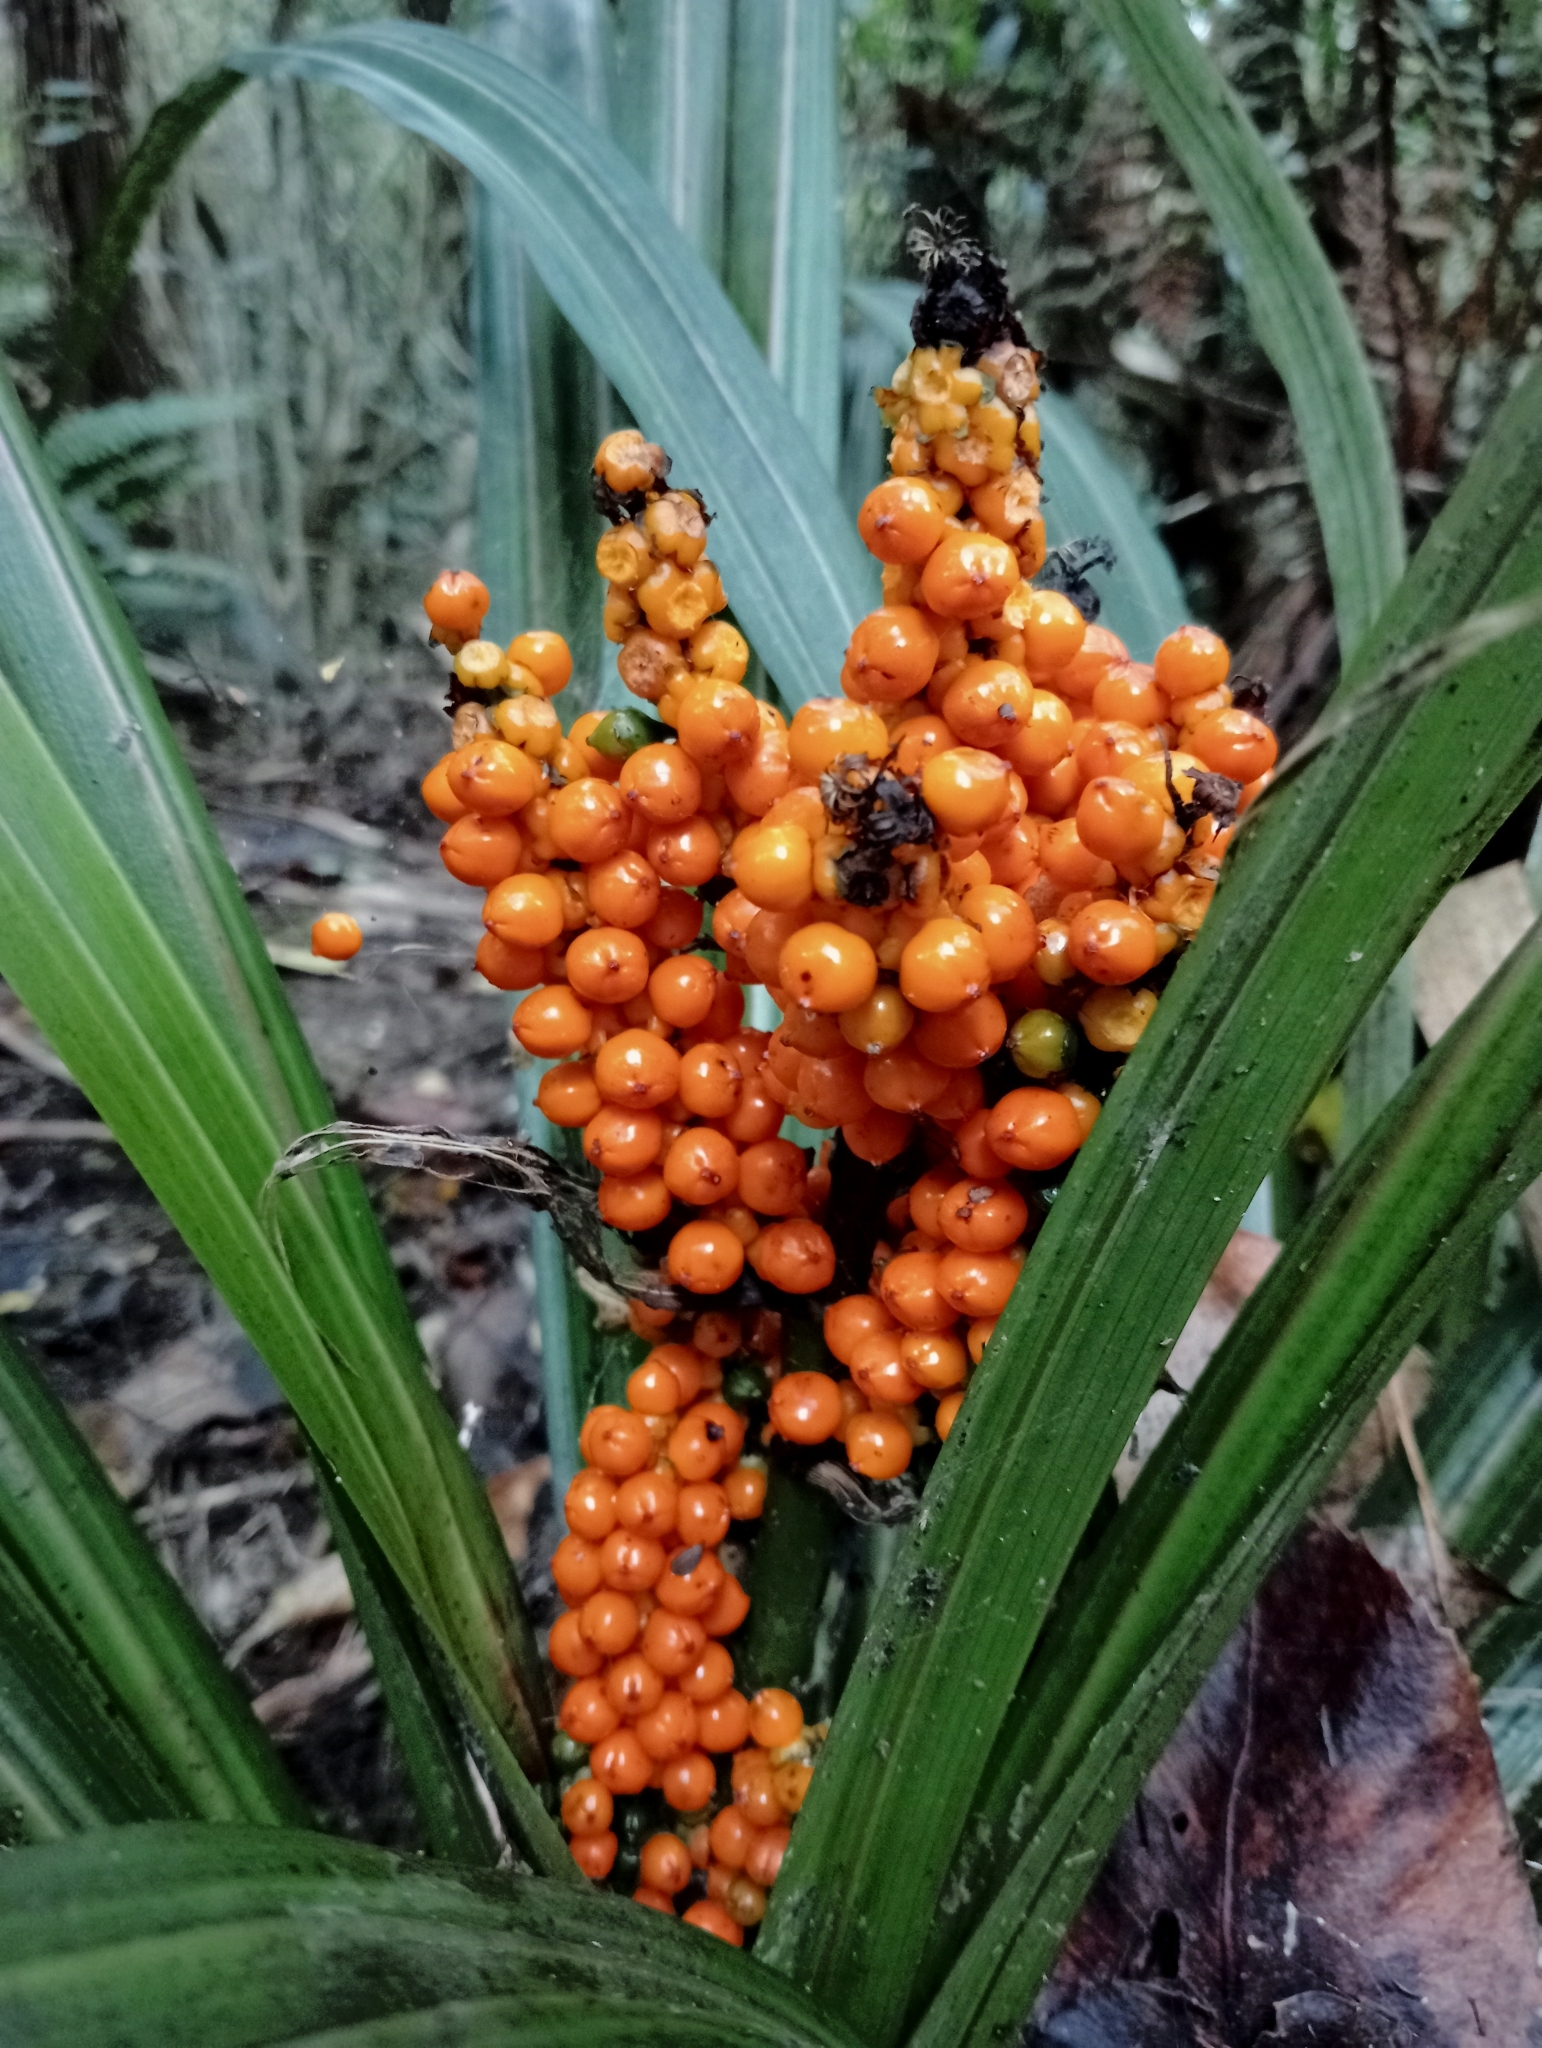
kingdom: Plantae
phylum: Tracheophyta
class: Liliopsida
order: Asparagales
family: Asteliaceae
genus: Astelia
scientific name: Astelia fragrans
